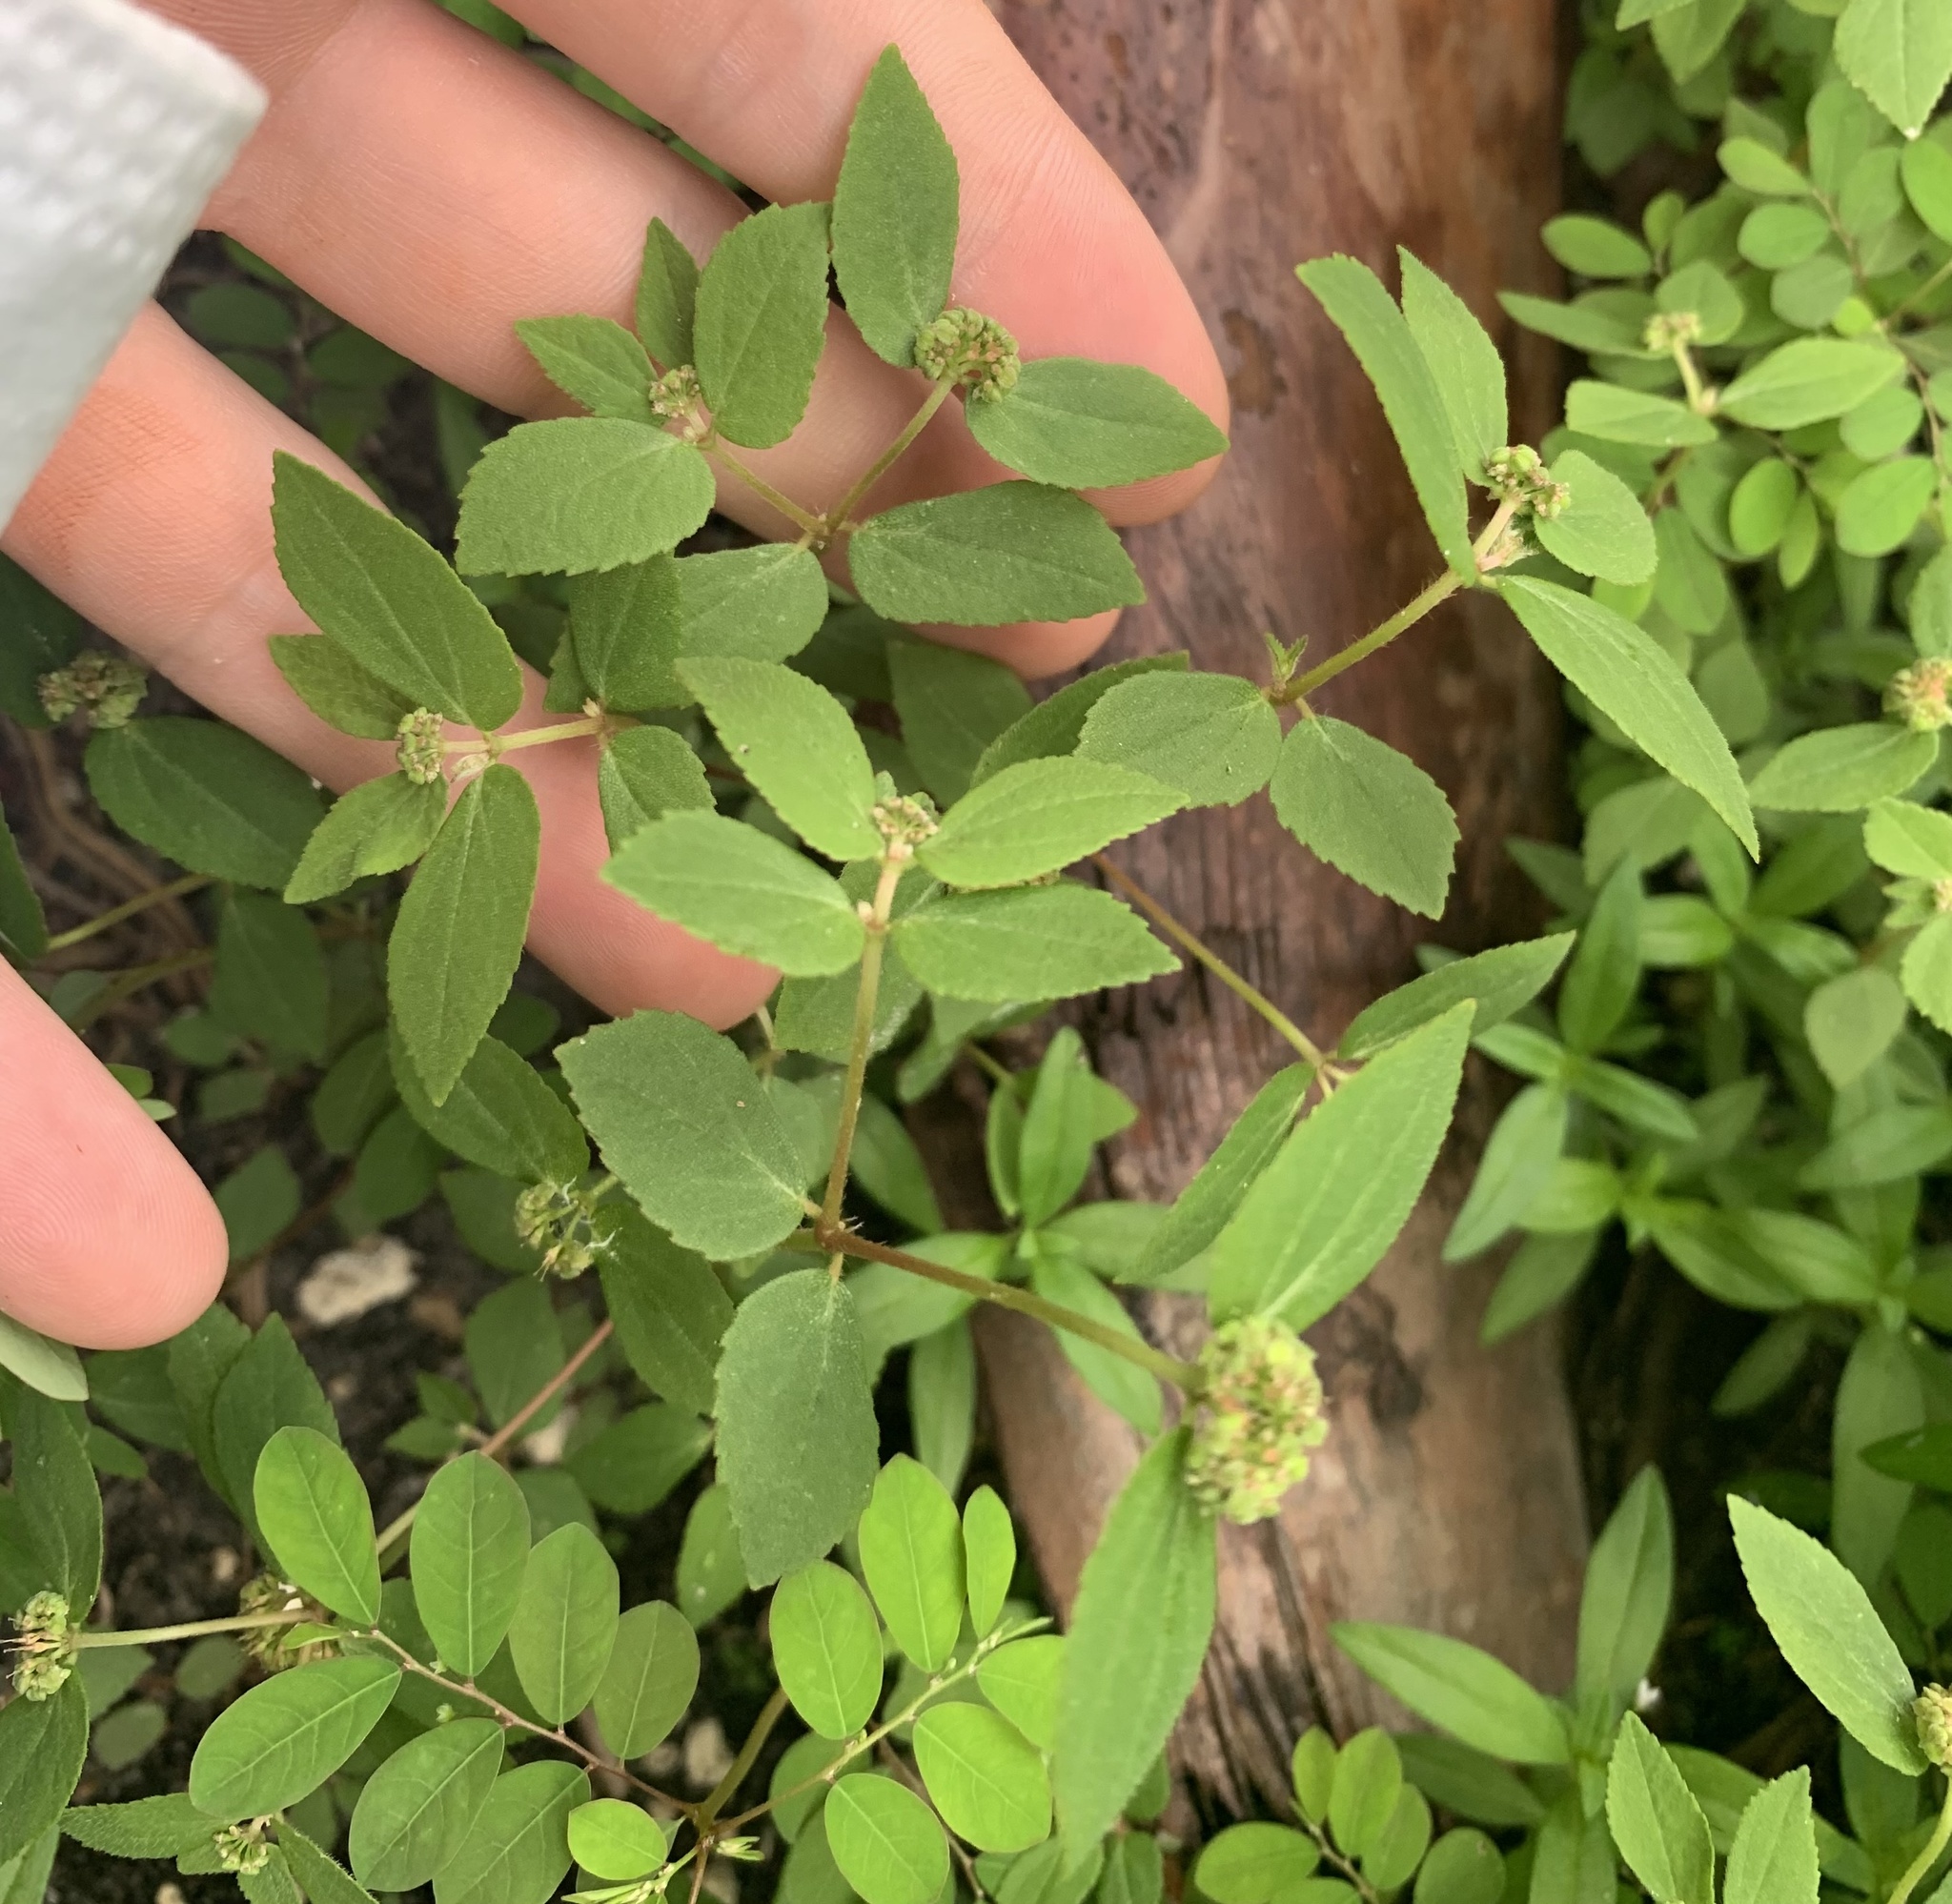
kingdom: Plantae
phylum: Tracheophyta
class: Magnoliopsida
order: Malpighiales
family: Euphorbiaceae
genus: Euphorbia
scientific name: Euphorbia ophthalmica
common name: Florida hammock sandmat
